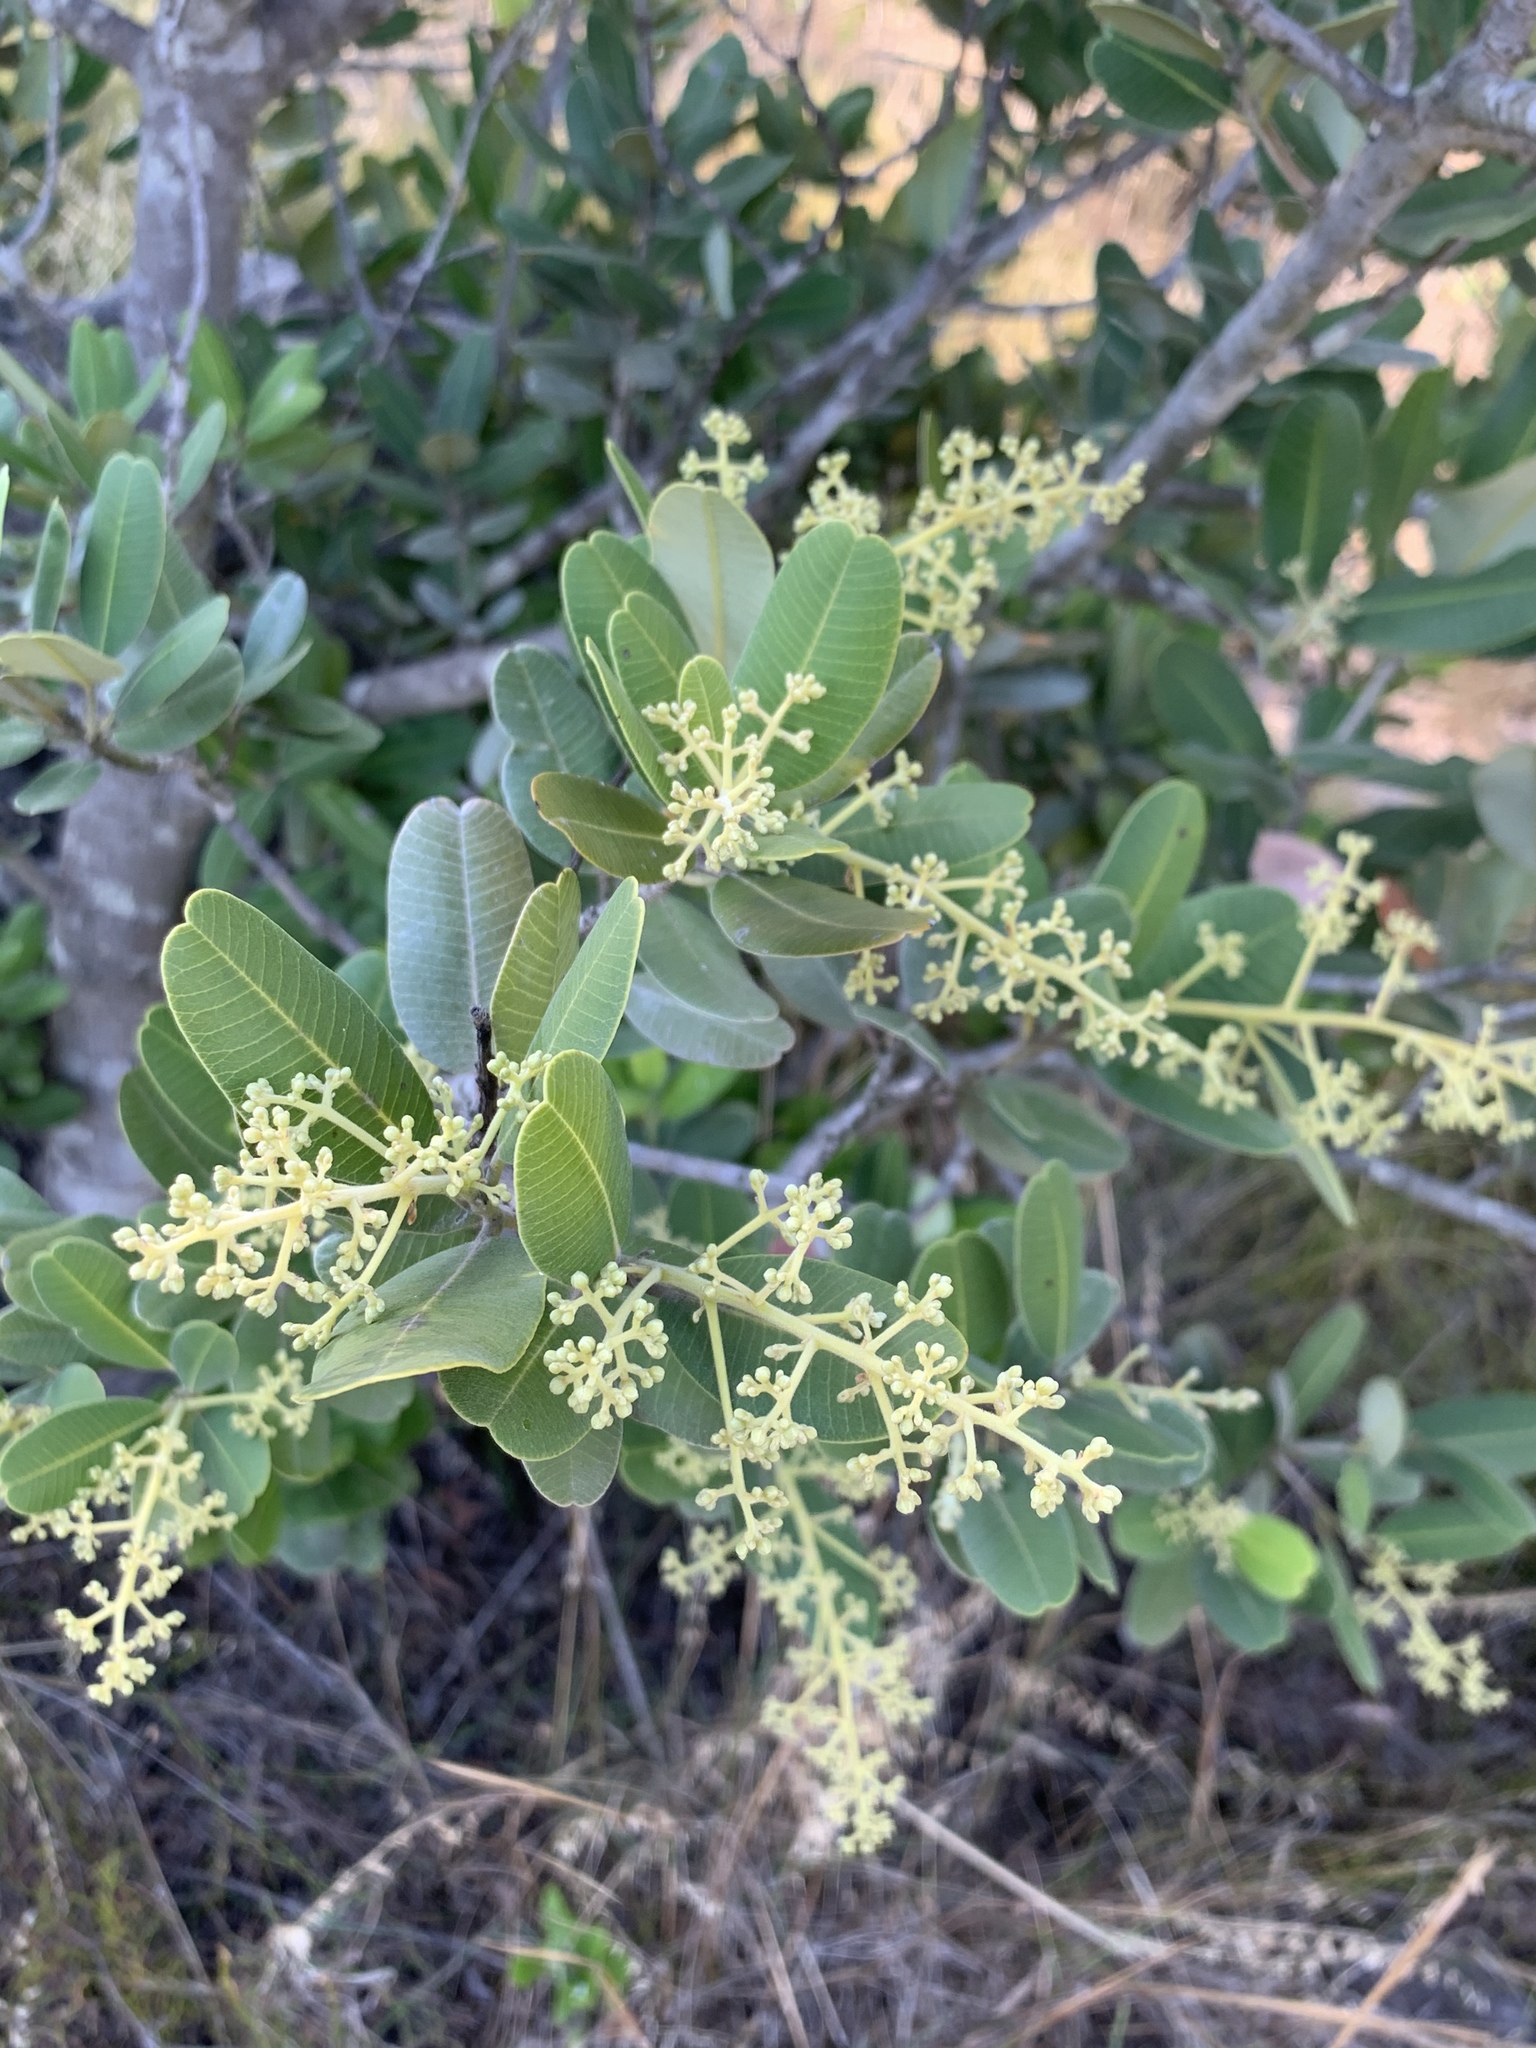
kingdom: Plantae
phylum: Tracheophyta
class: Magnoliopsida
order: Sapindales
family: Anacardiaceae
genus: Heeria
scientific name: Heeria argentea
